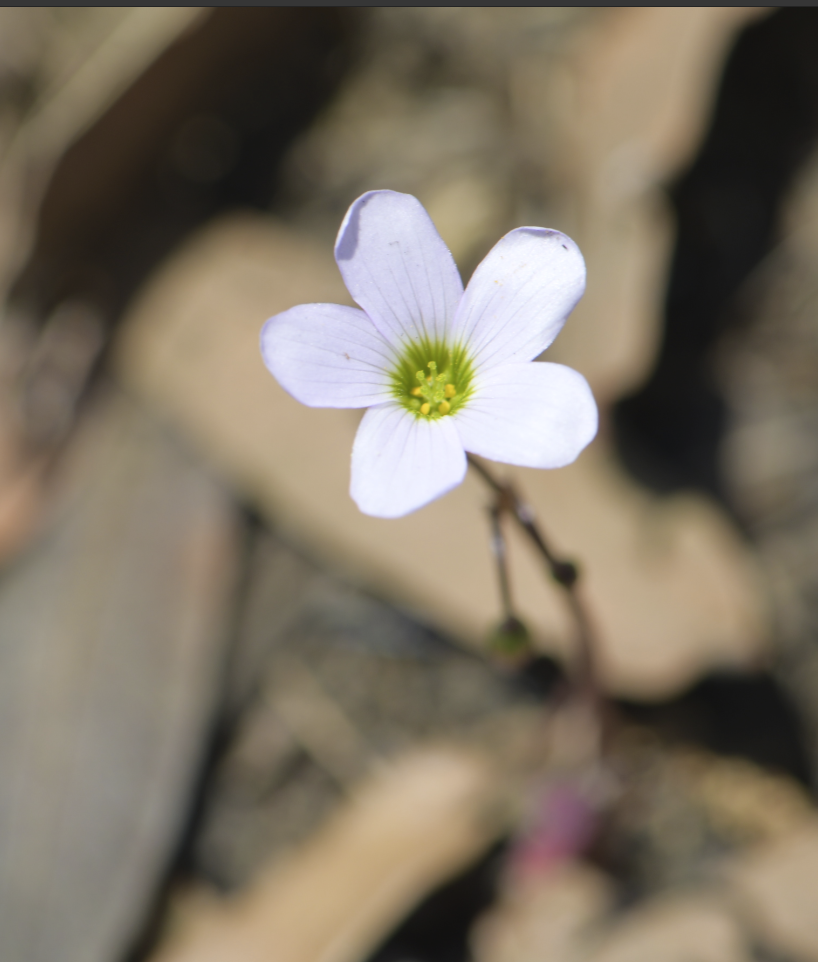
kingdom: Plantae
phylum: Tracheophyta
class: Magnoliopsida
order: Oxalidales
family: Oxalidaceae
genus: Oxalis
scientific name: Oxalis
